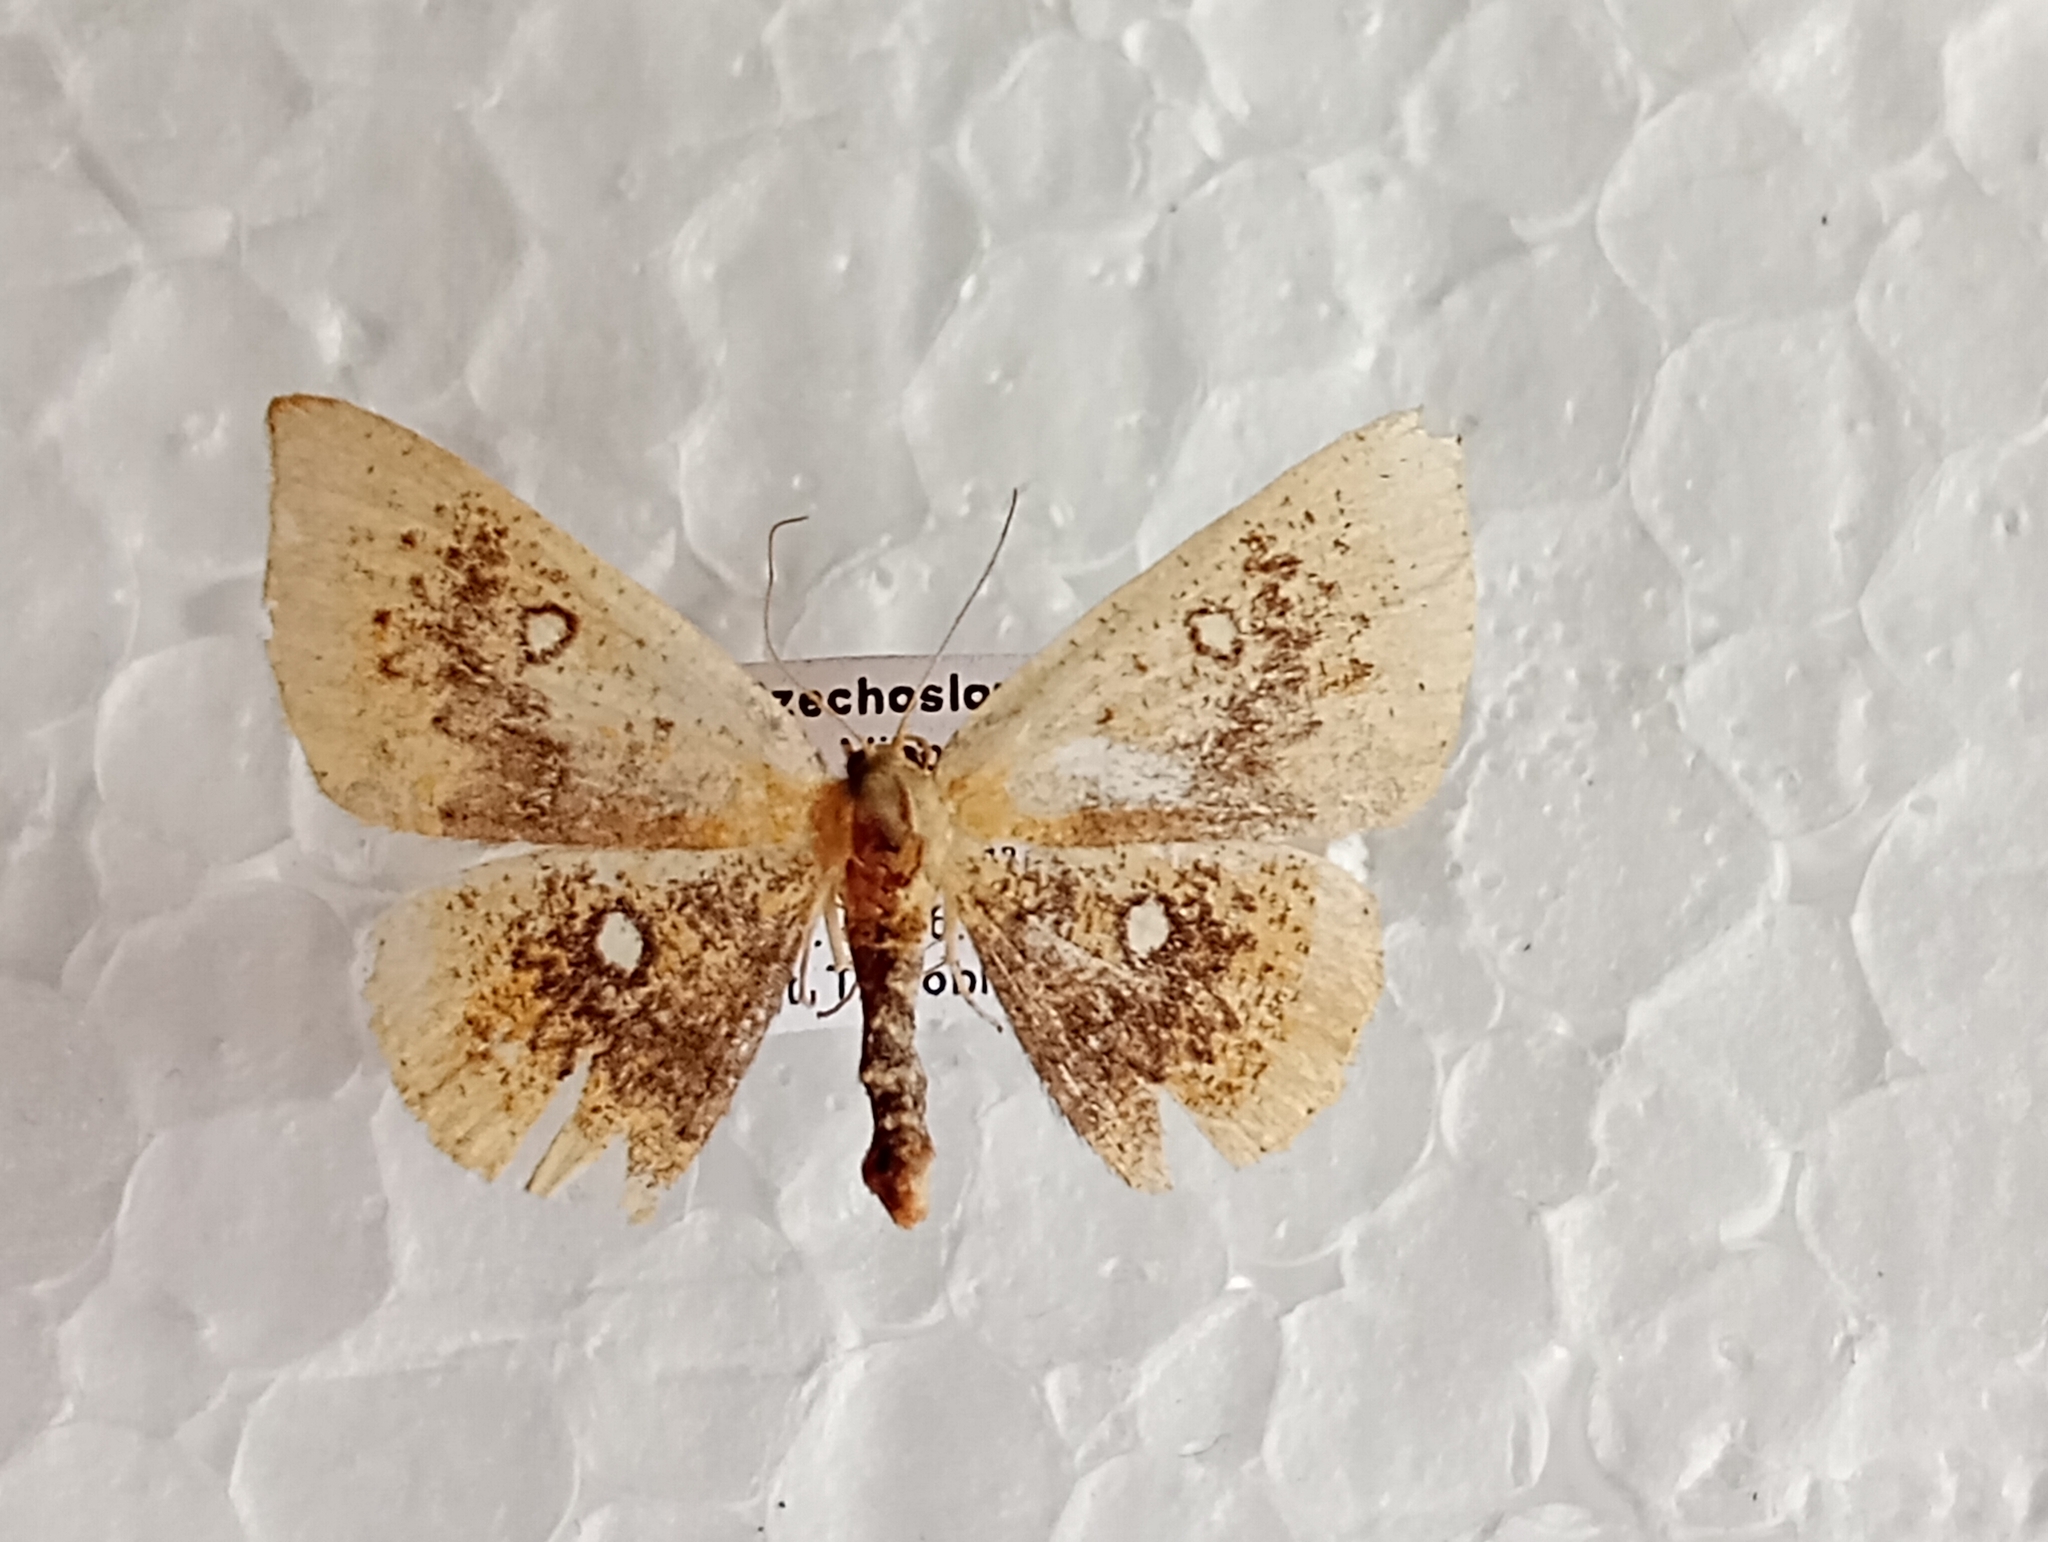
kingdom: Animalia
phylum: Arthropoda
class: Insecta
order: Lepidoptera
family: Geometridae
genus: Cyclophora
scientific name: Cyclophora albiocellaria
